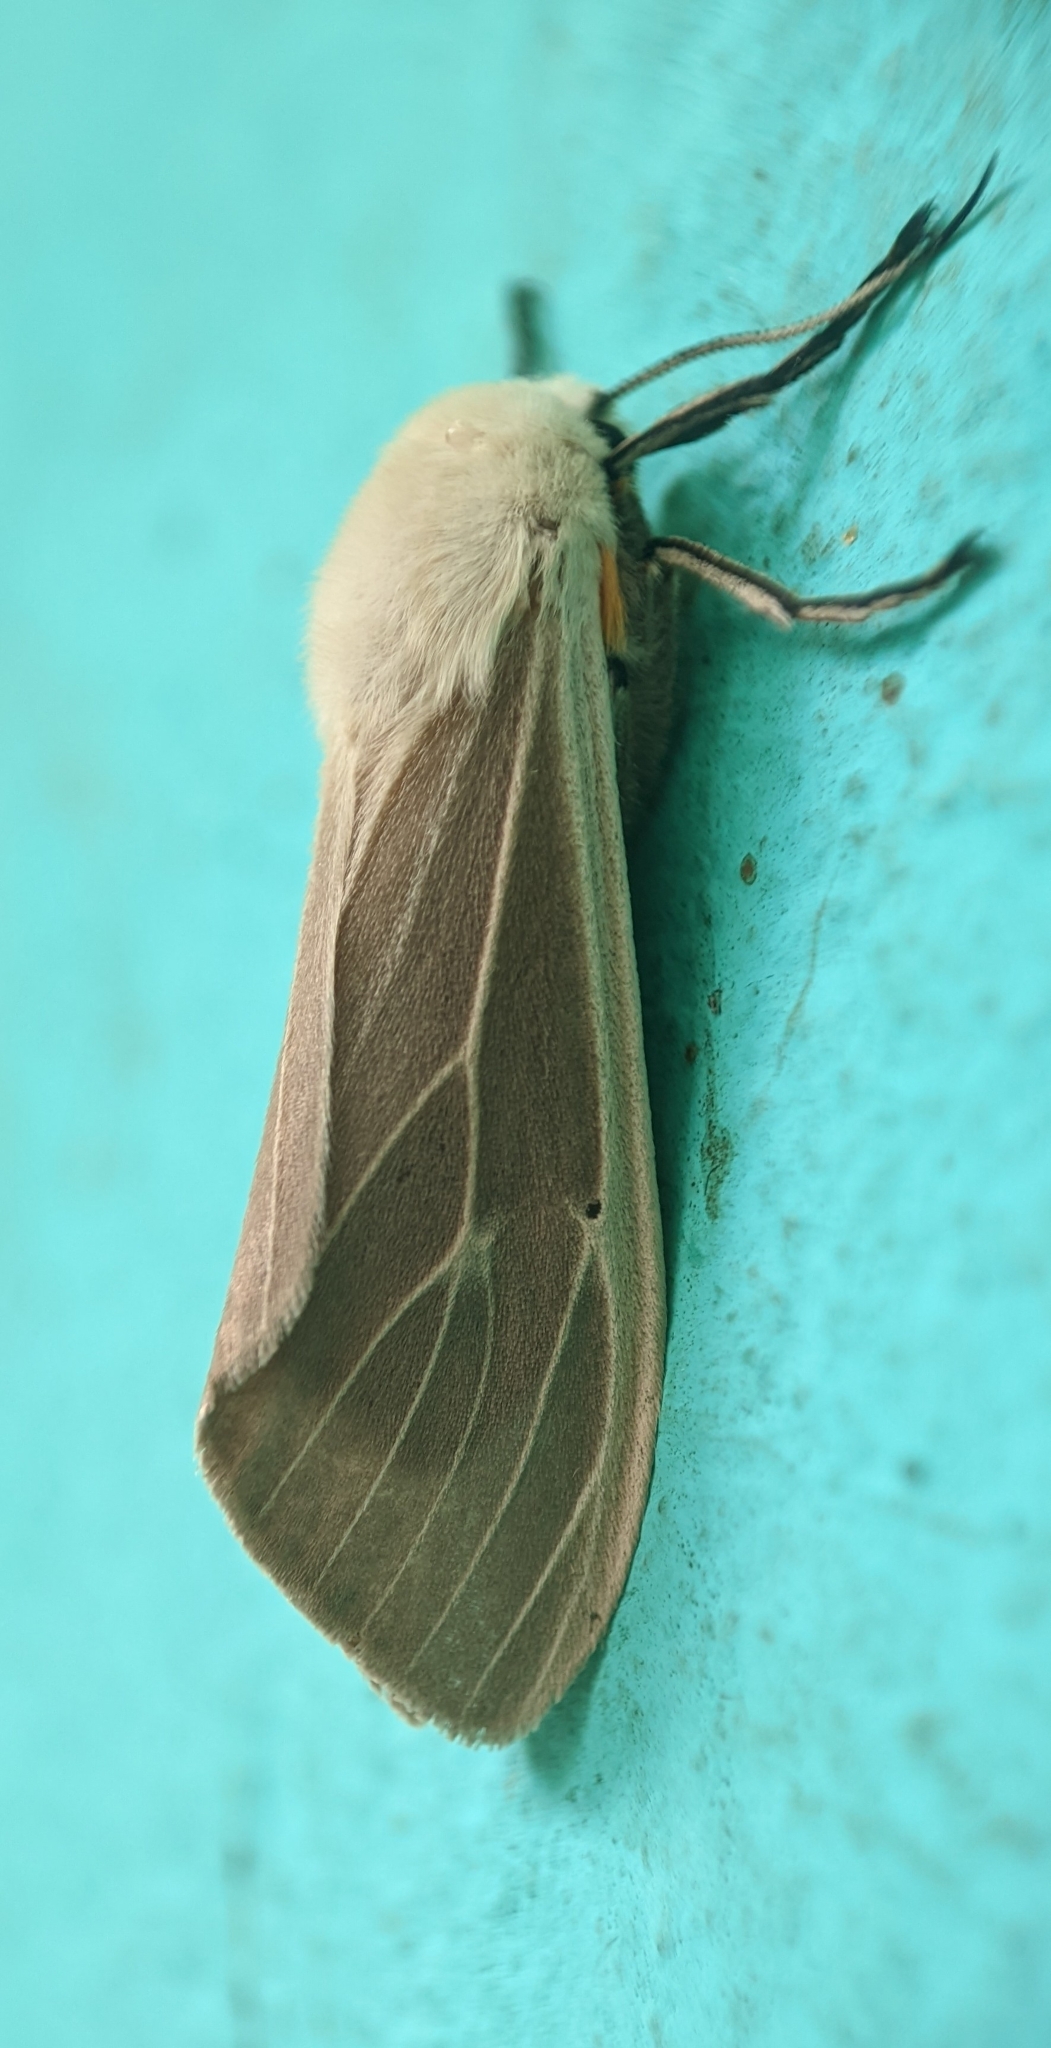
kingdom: Animalia
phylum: Arthropoda
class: Insecta
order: Lepidoptera
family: Erebidae
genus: Creatonotos
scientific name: Creatonotos transiens
